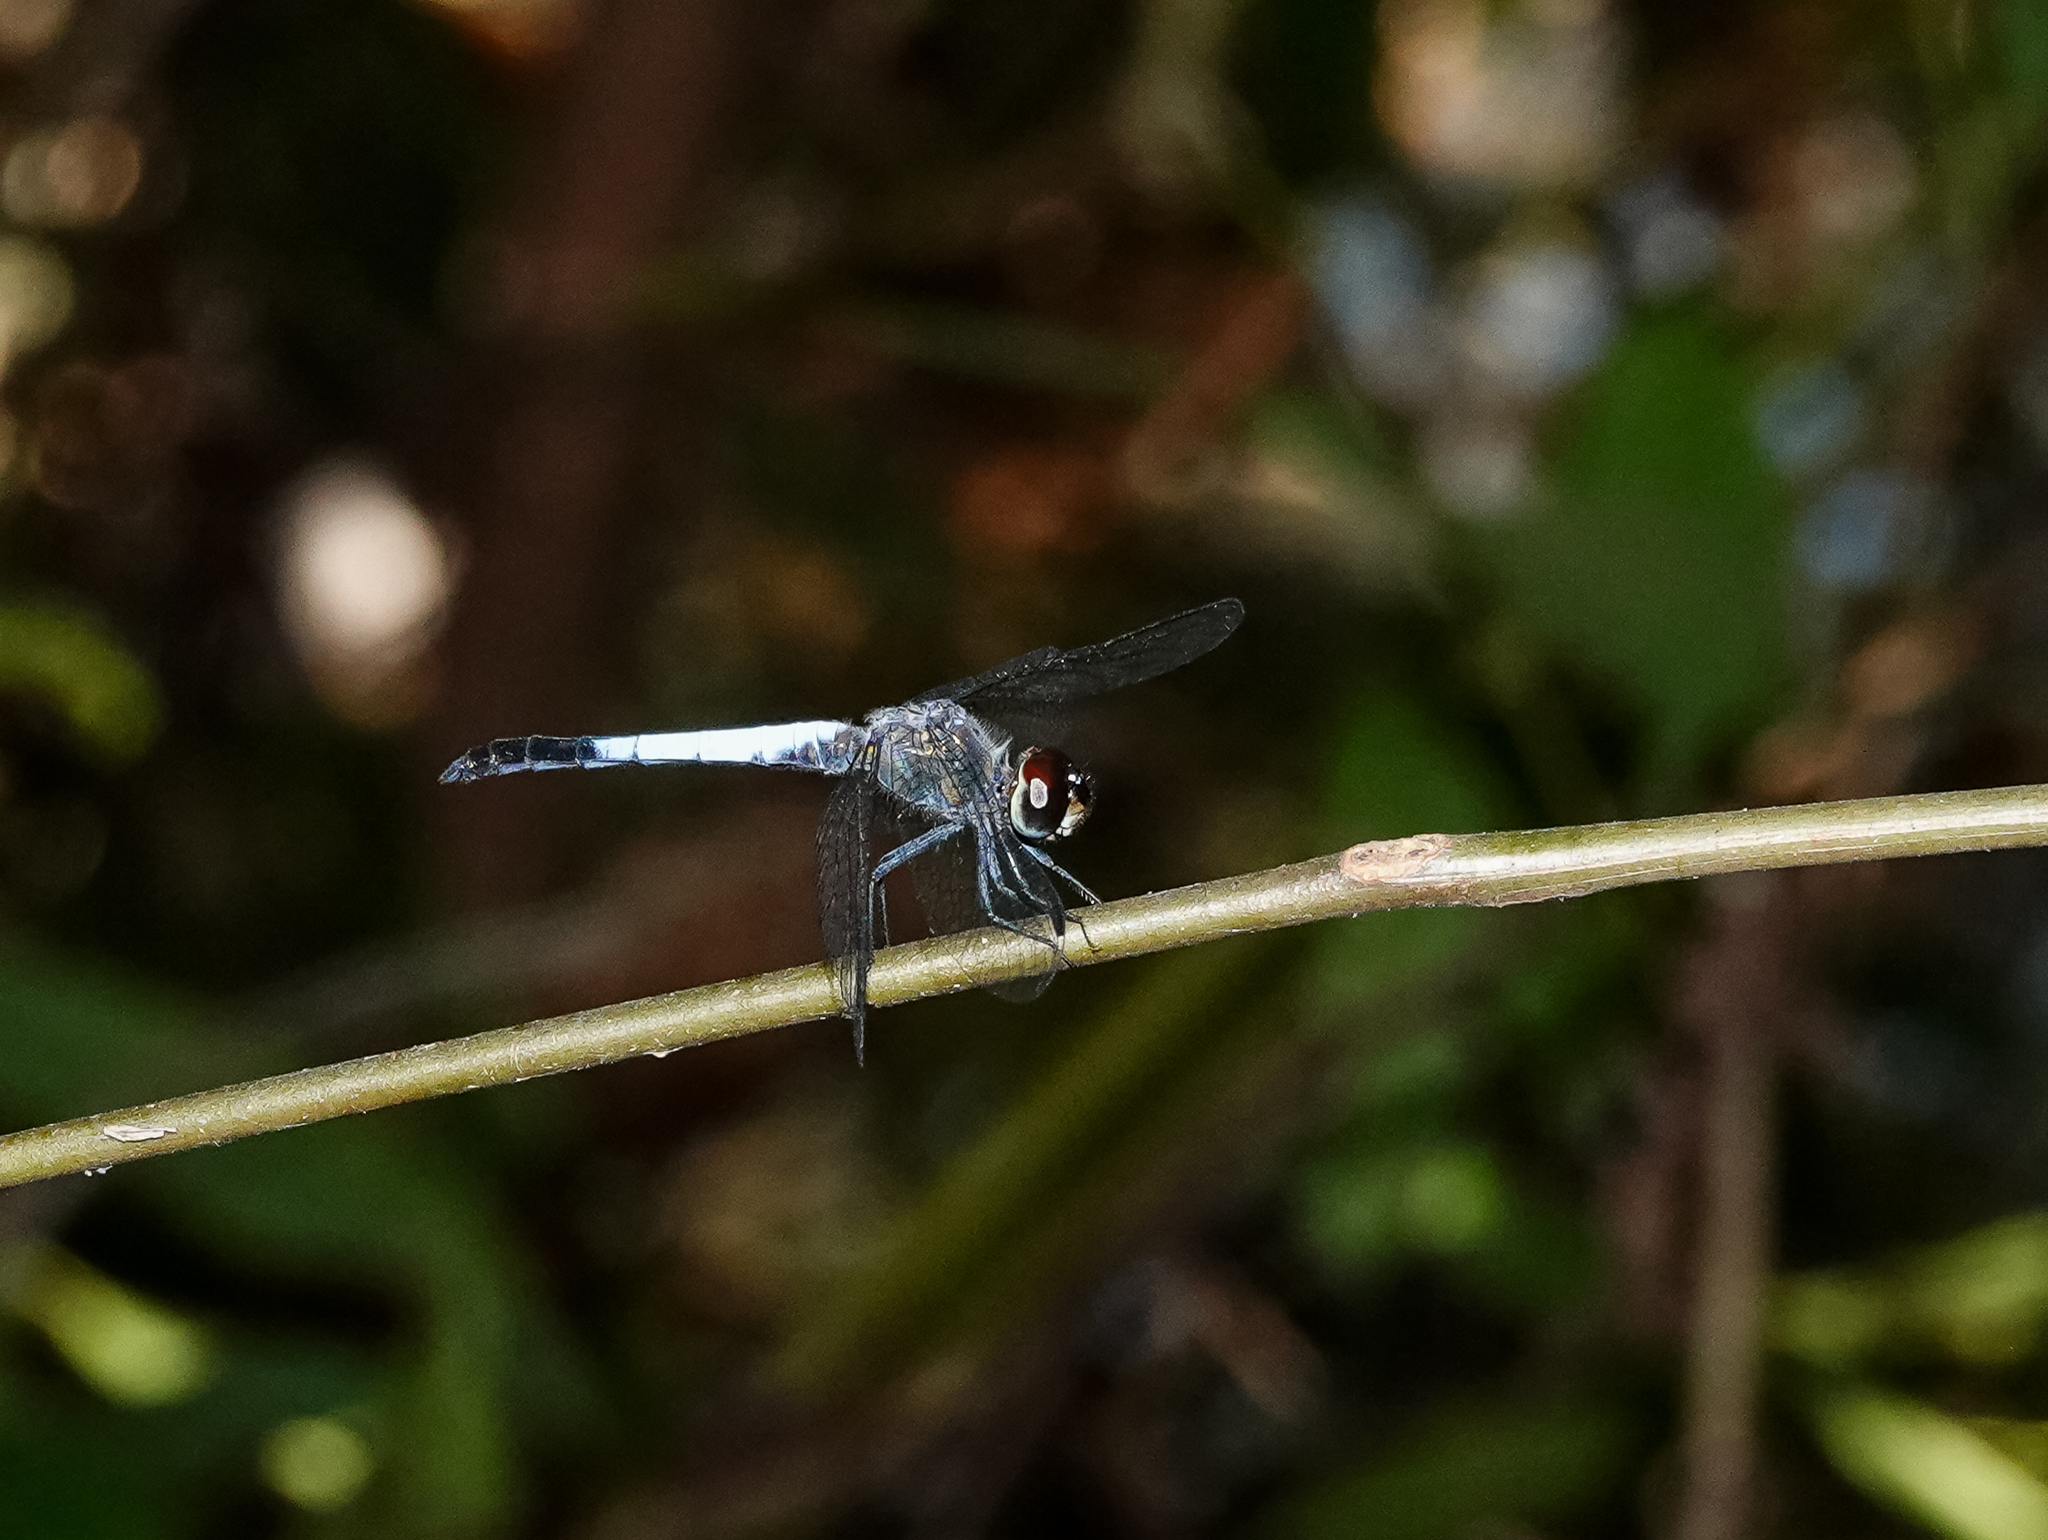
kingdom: Animalia
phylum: Arthropoda
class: Insecta
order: Odonata
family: Libellulidae
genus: Brachydiplax
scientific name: Brachydiplax chalybea
